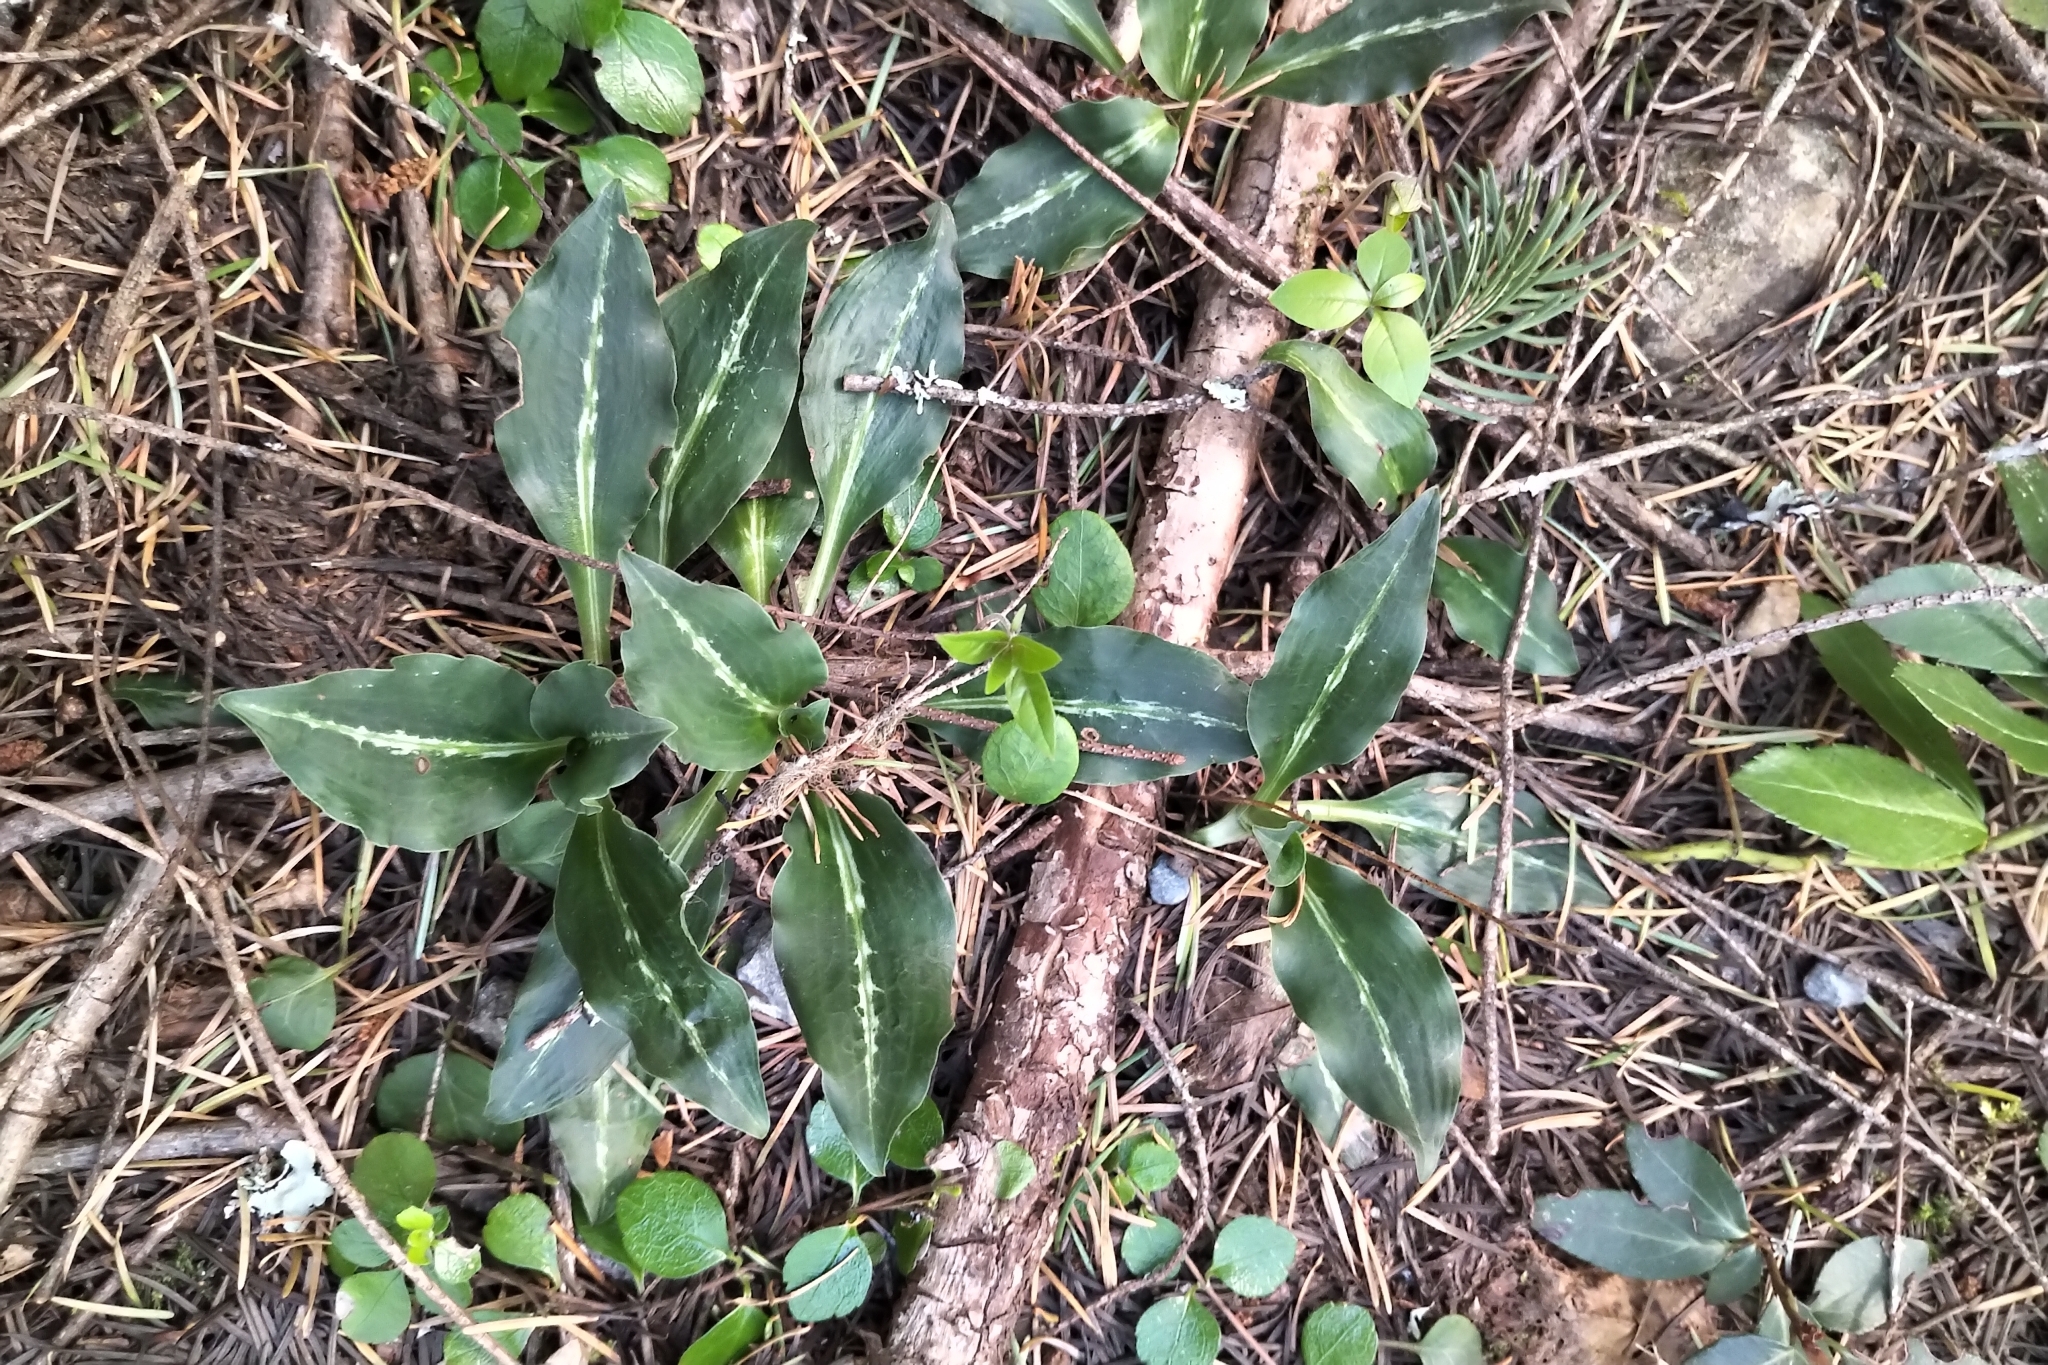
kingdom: Plantae
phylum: Tracheophyta
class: Liliopsida
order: Asparagales
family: Orchidaceae
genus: Goodyera
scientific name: Goodyera oblongifolia
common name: Giant rattlesnake-plantain
